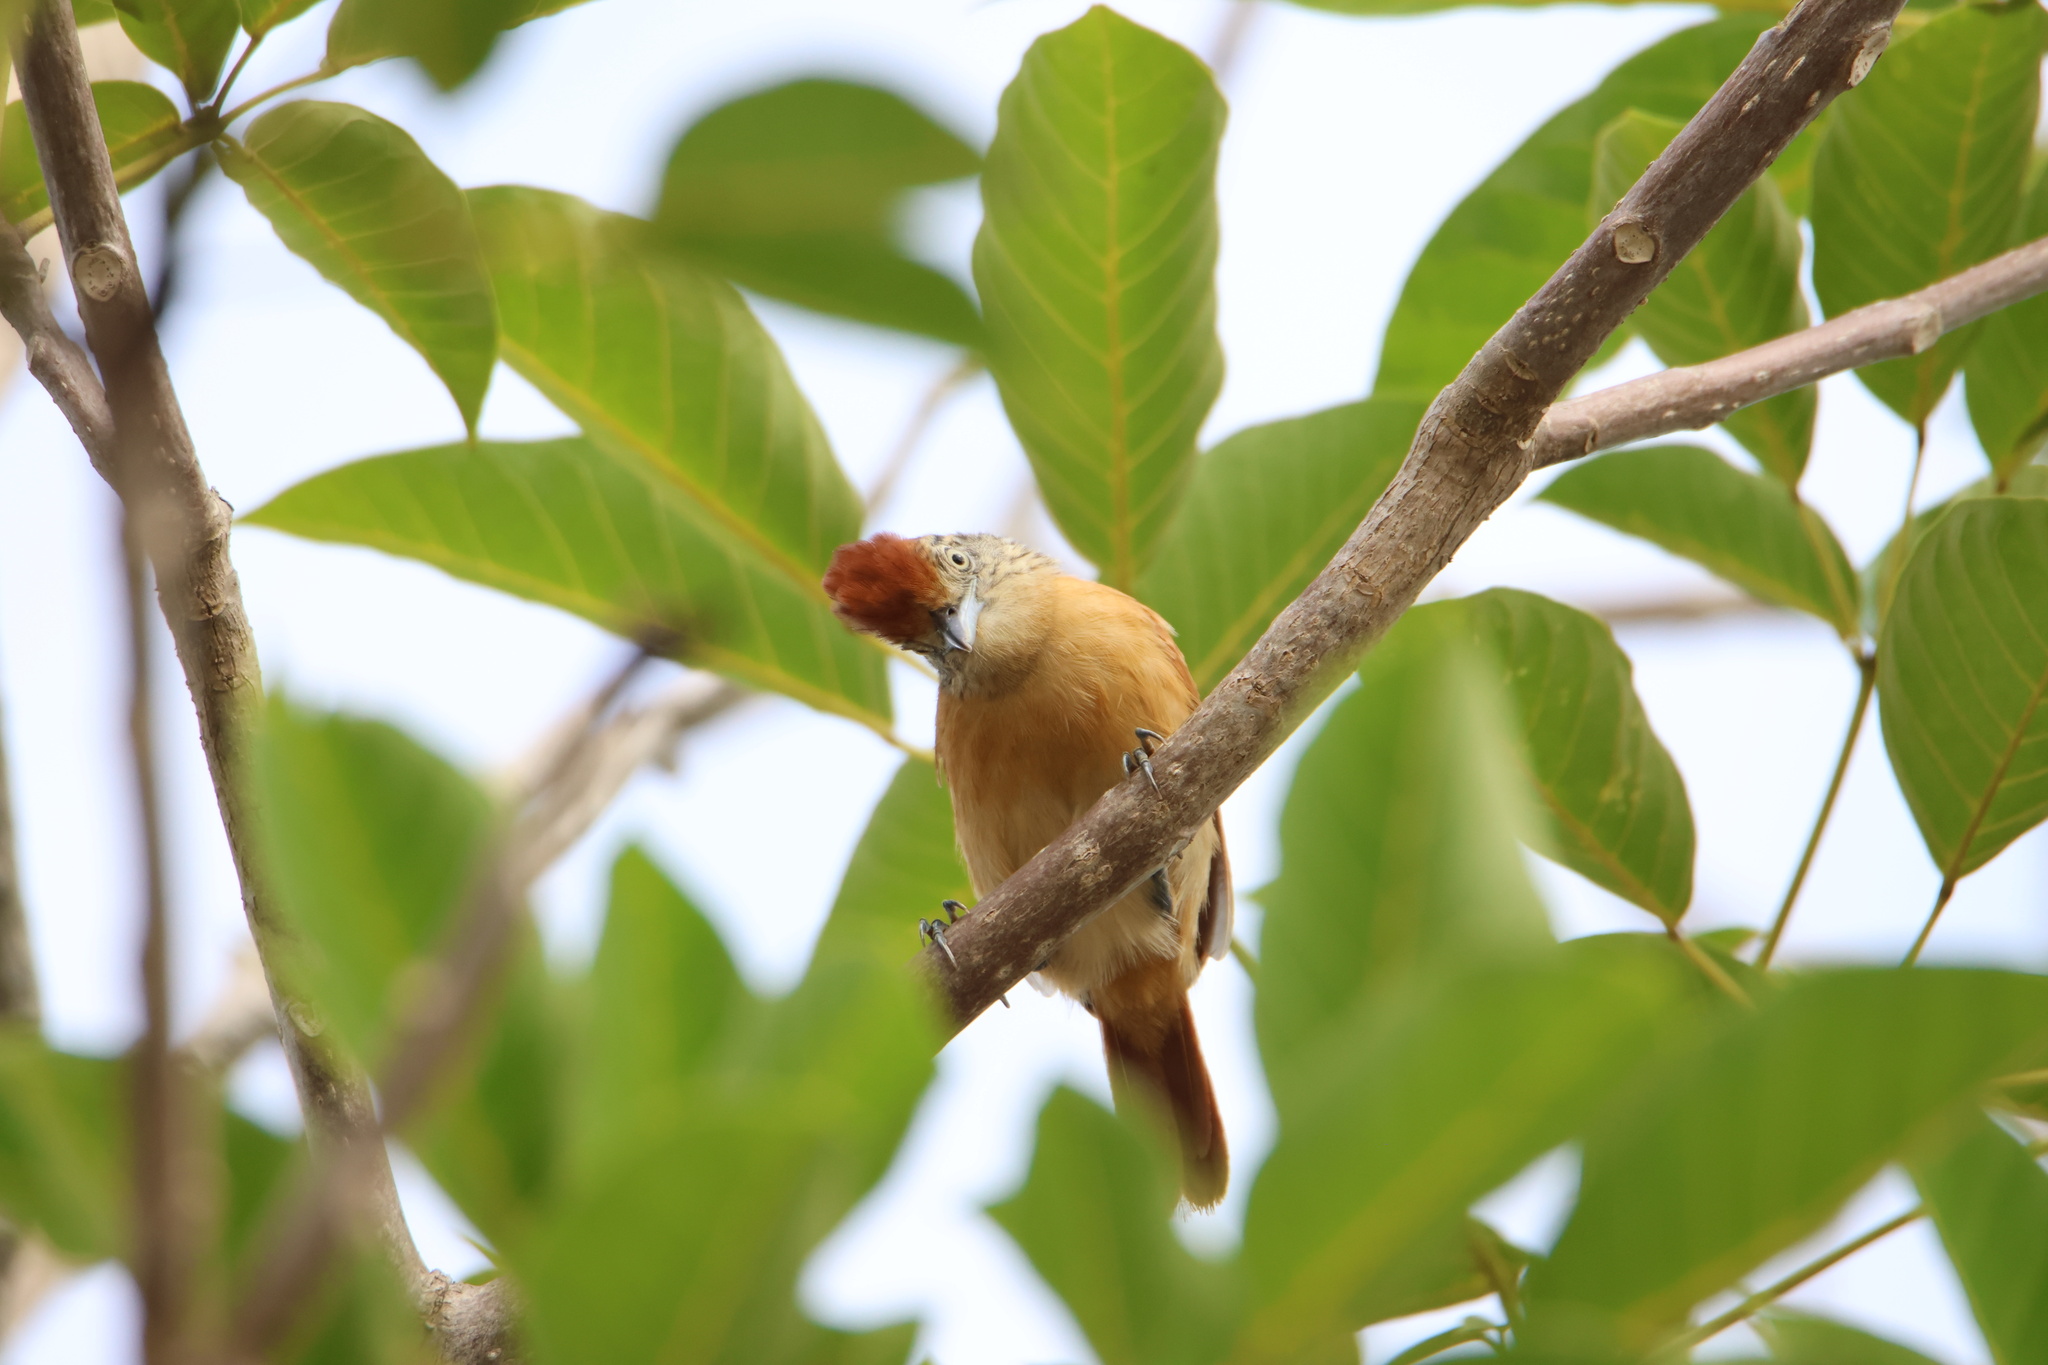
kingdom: Animalia
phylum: Chordata
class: Aves
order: Passeriformes
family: Thamnophilidae
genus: Thamnophilus
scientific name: Thamnophilus doliatus
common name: Barred antshrike
